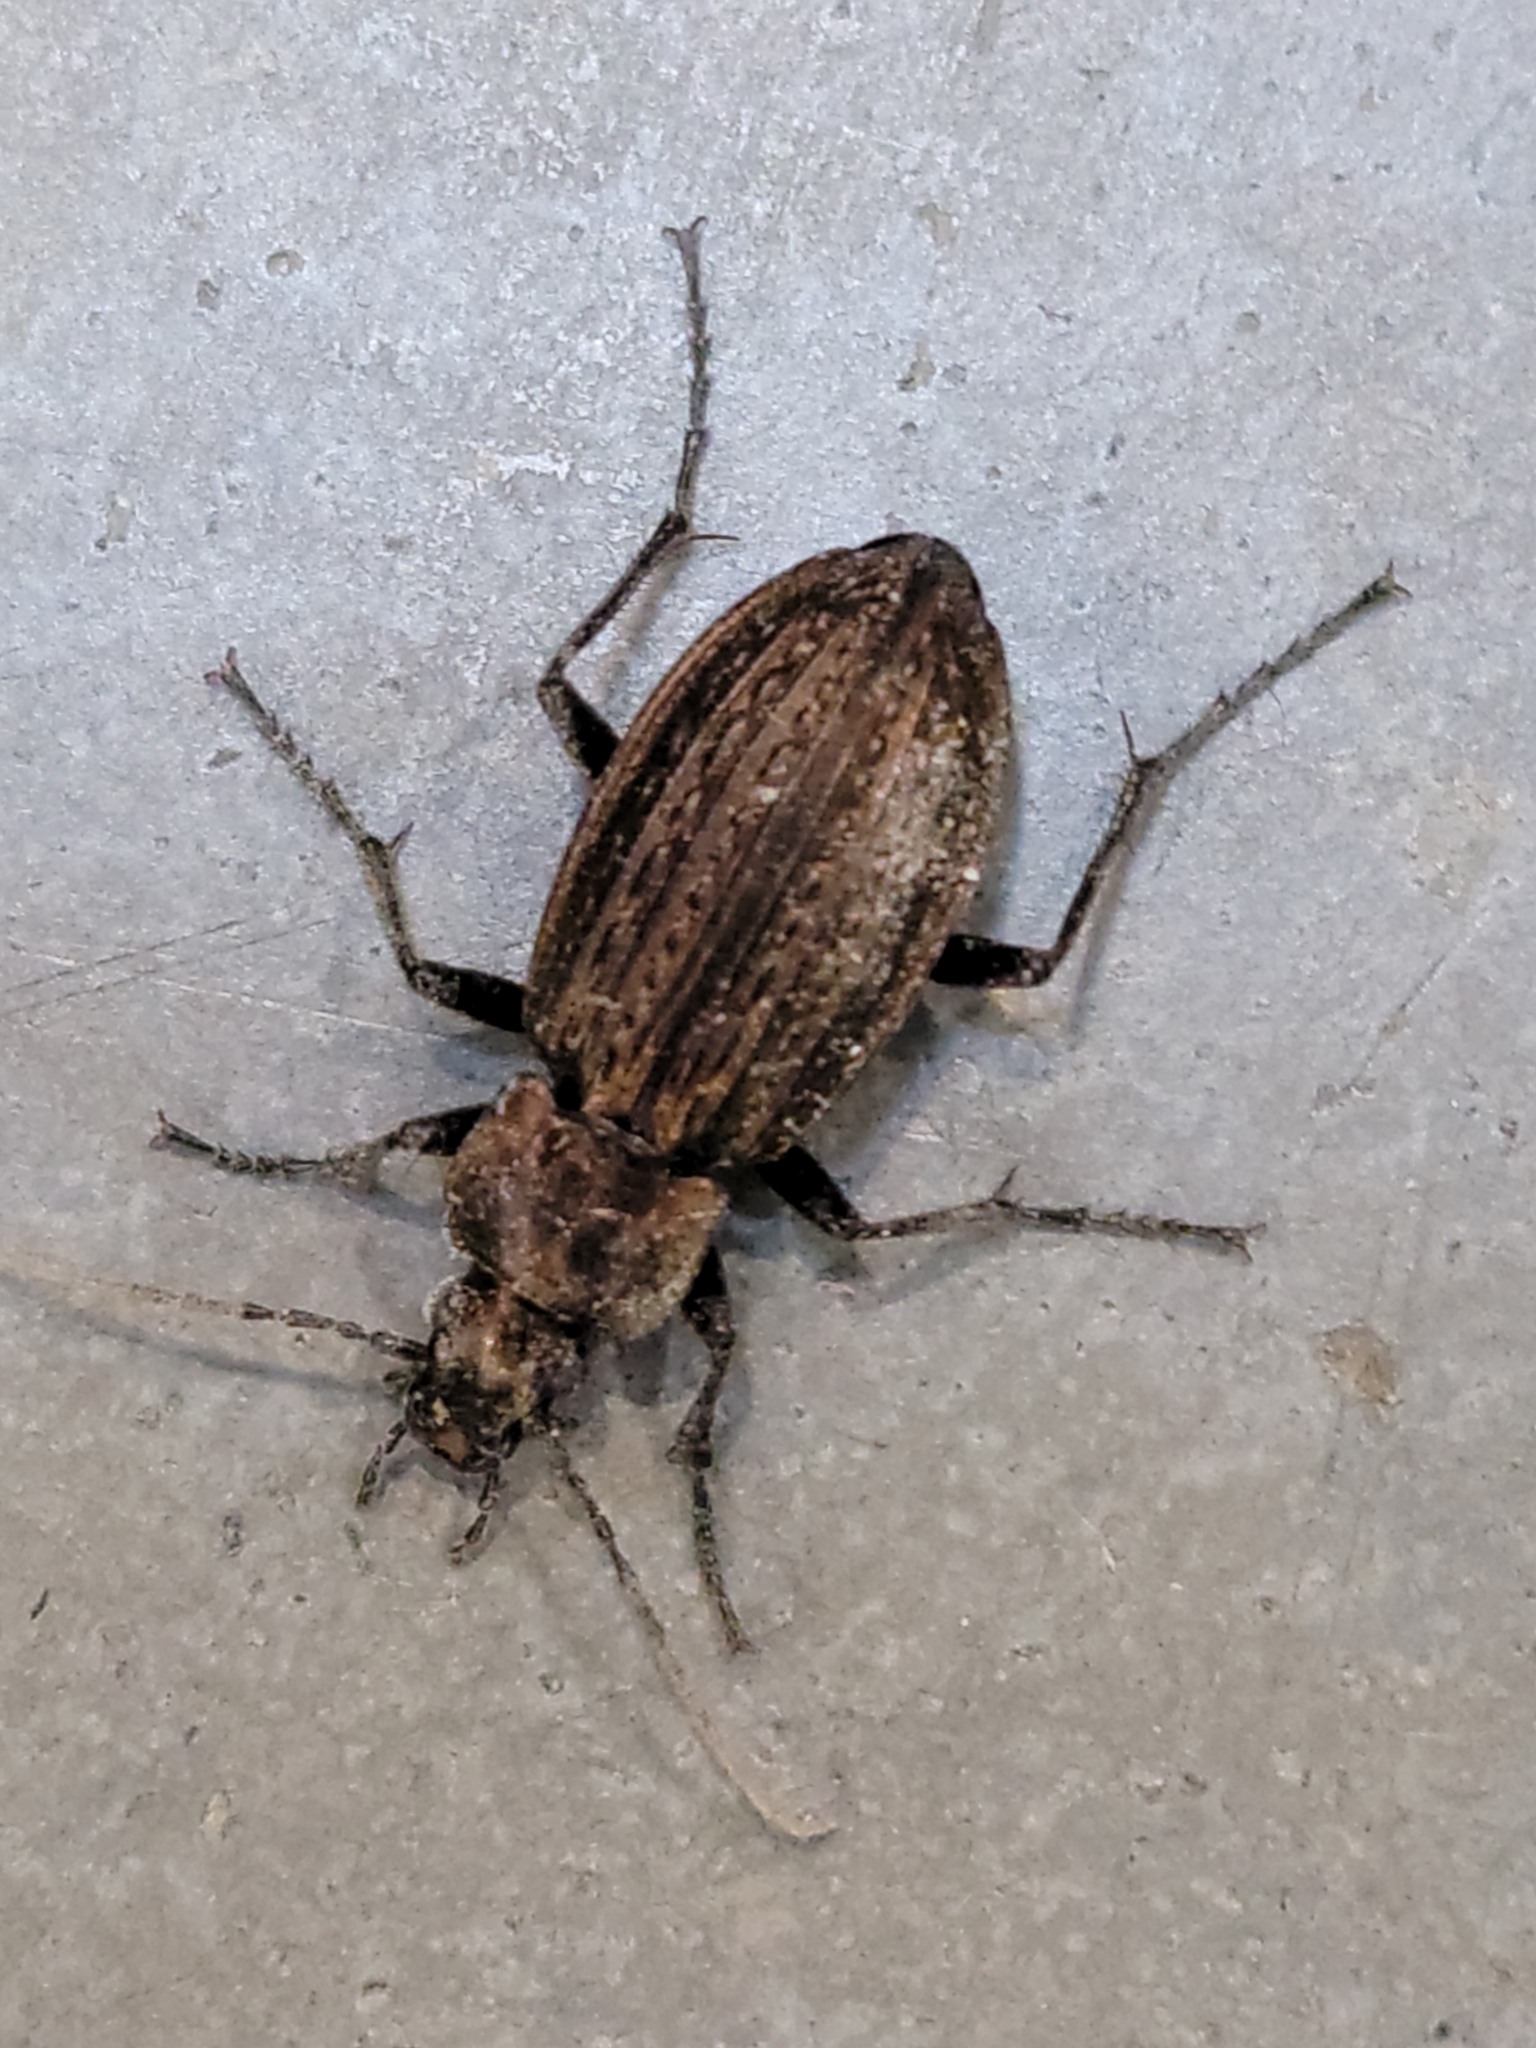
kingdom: Animalia
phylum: Arthropoda
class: Insecta
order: Coleoptera
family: Carabidae
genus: Carabus
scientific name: Carabus granulatus
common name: Granulate ground beetle
